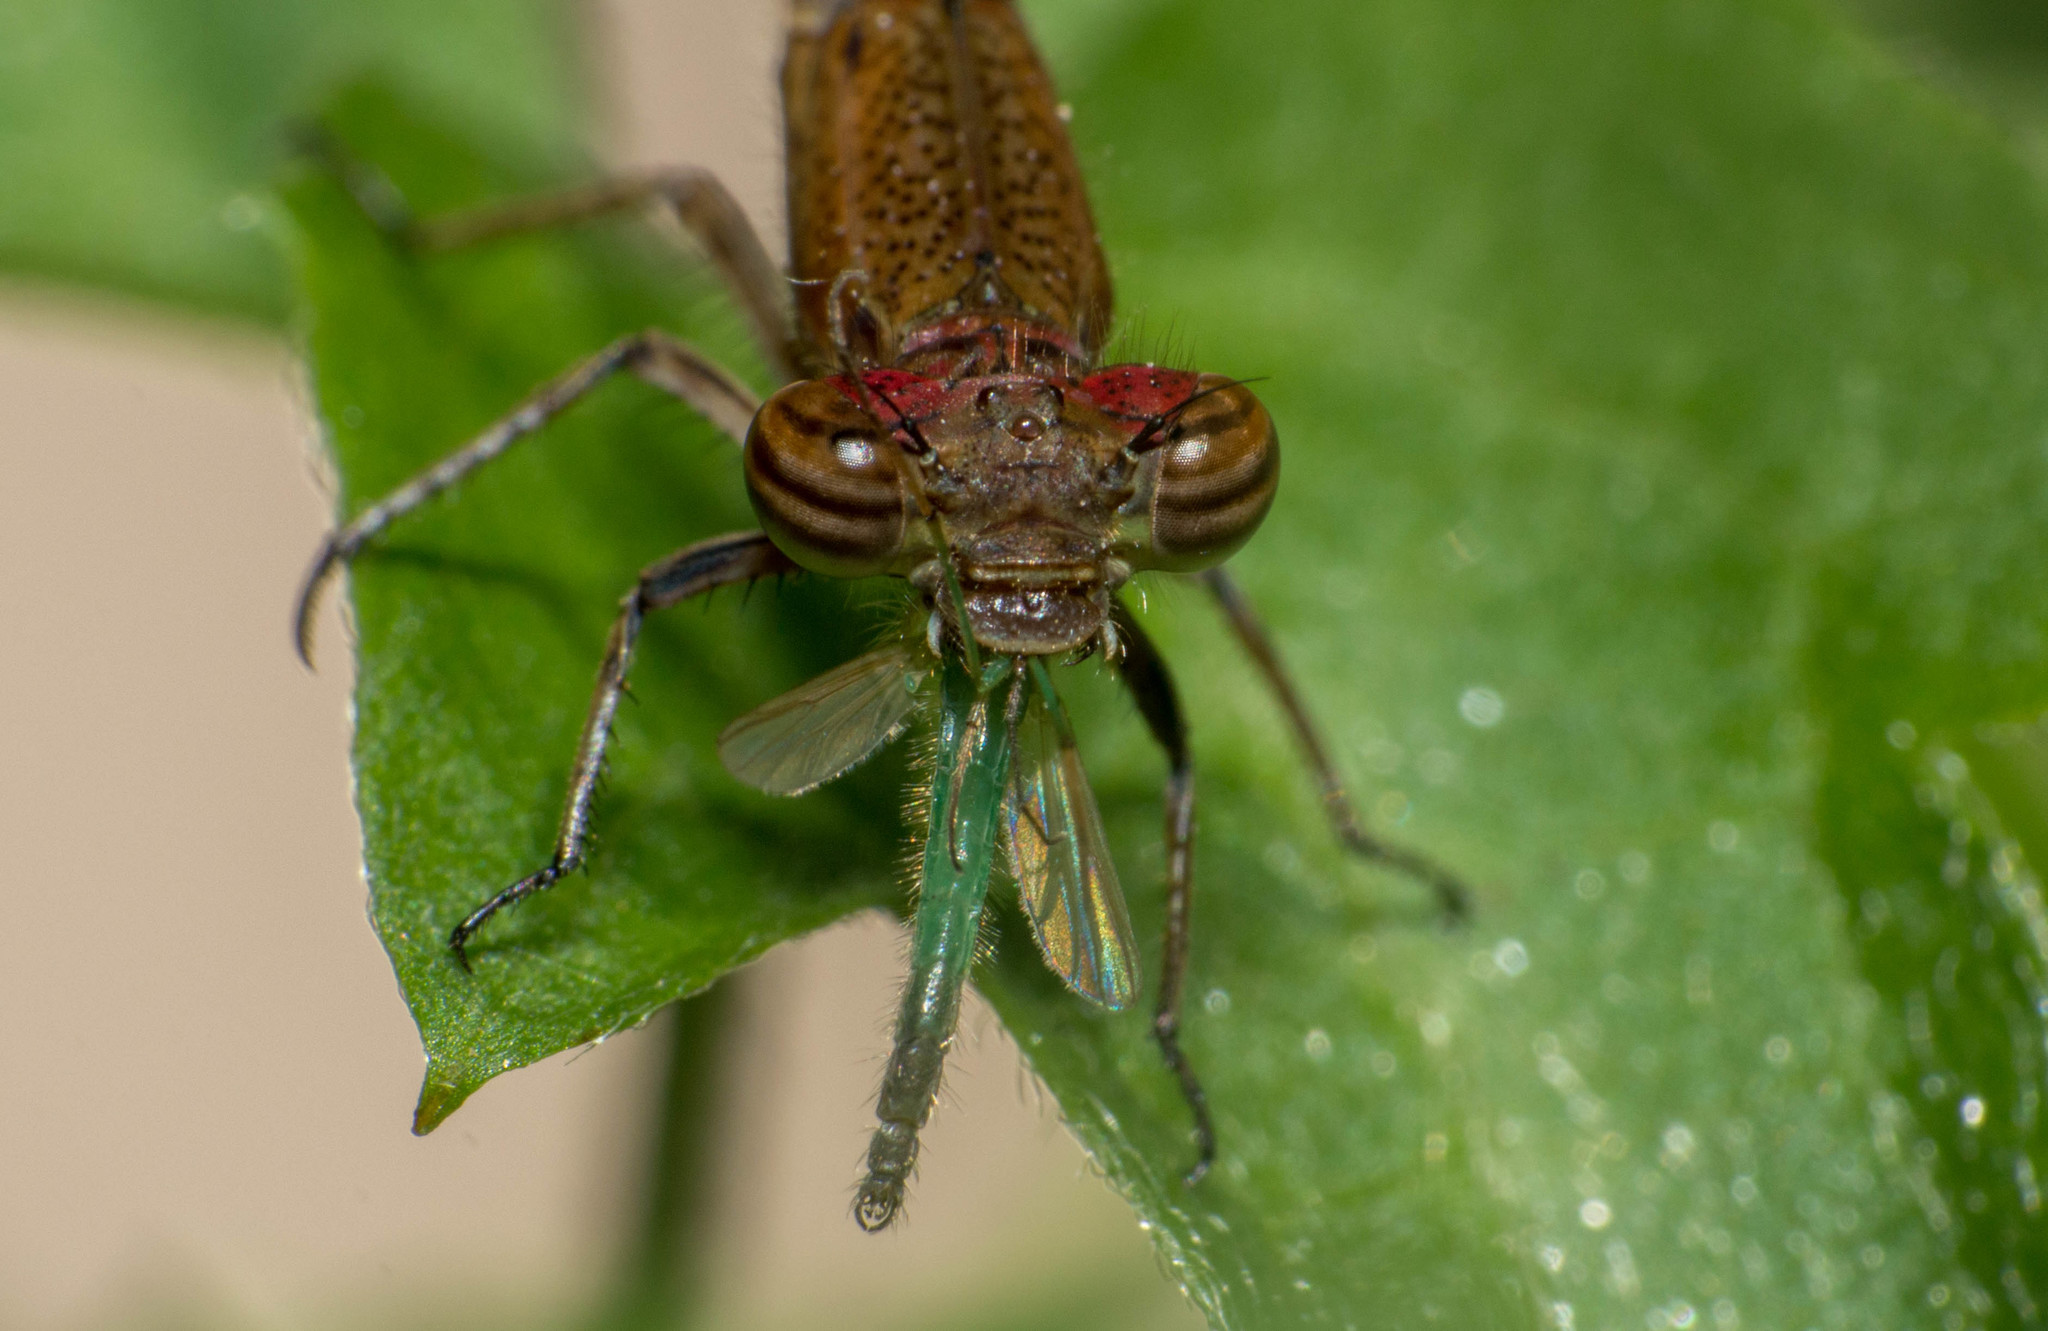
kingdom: Animalia
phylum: Arthropoda
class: Insecta
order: Odonata
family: Coenagrionidae
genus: Oxyagrion
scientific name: Oxyagrion terminale
